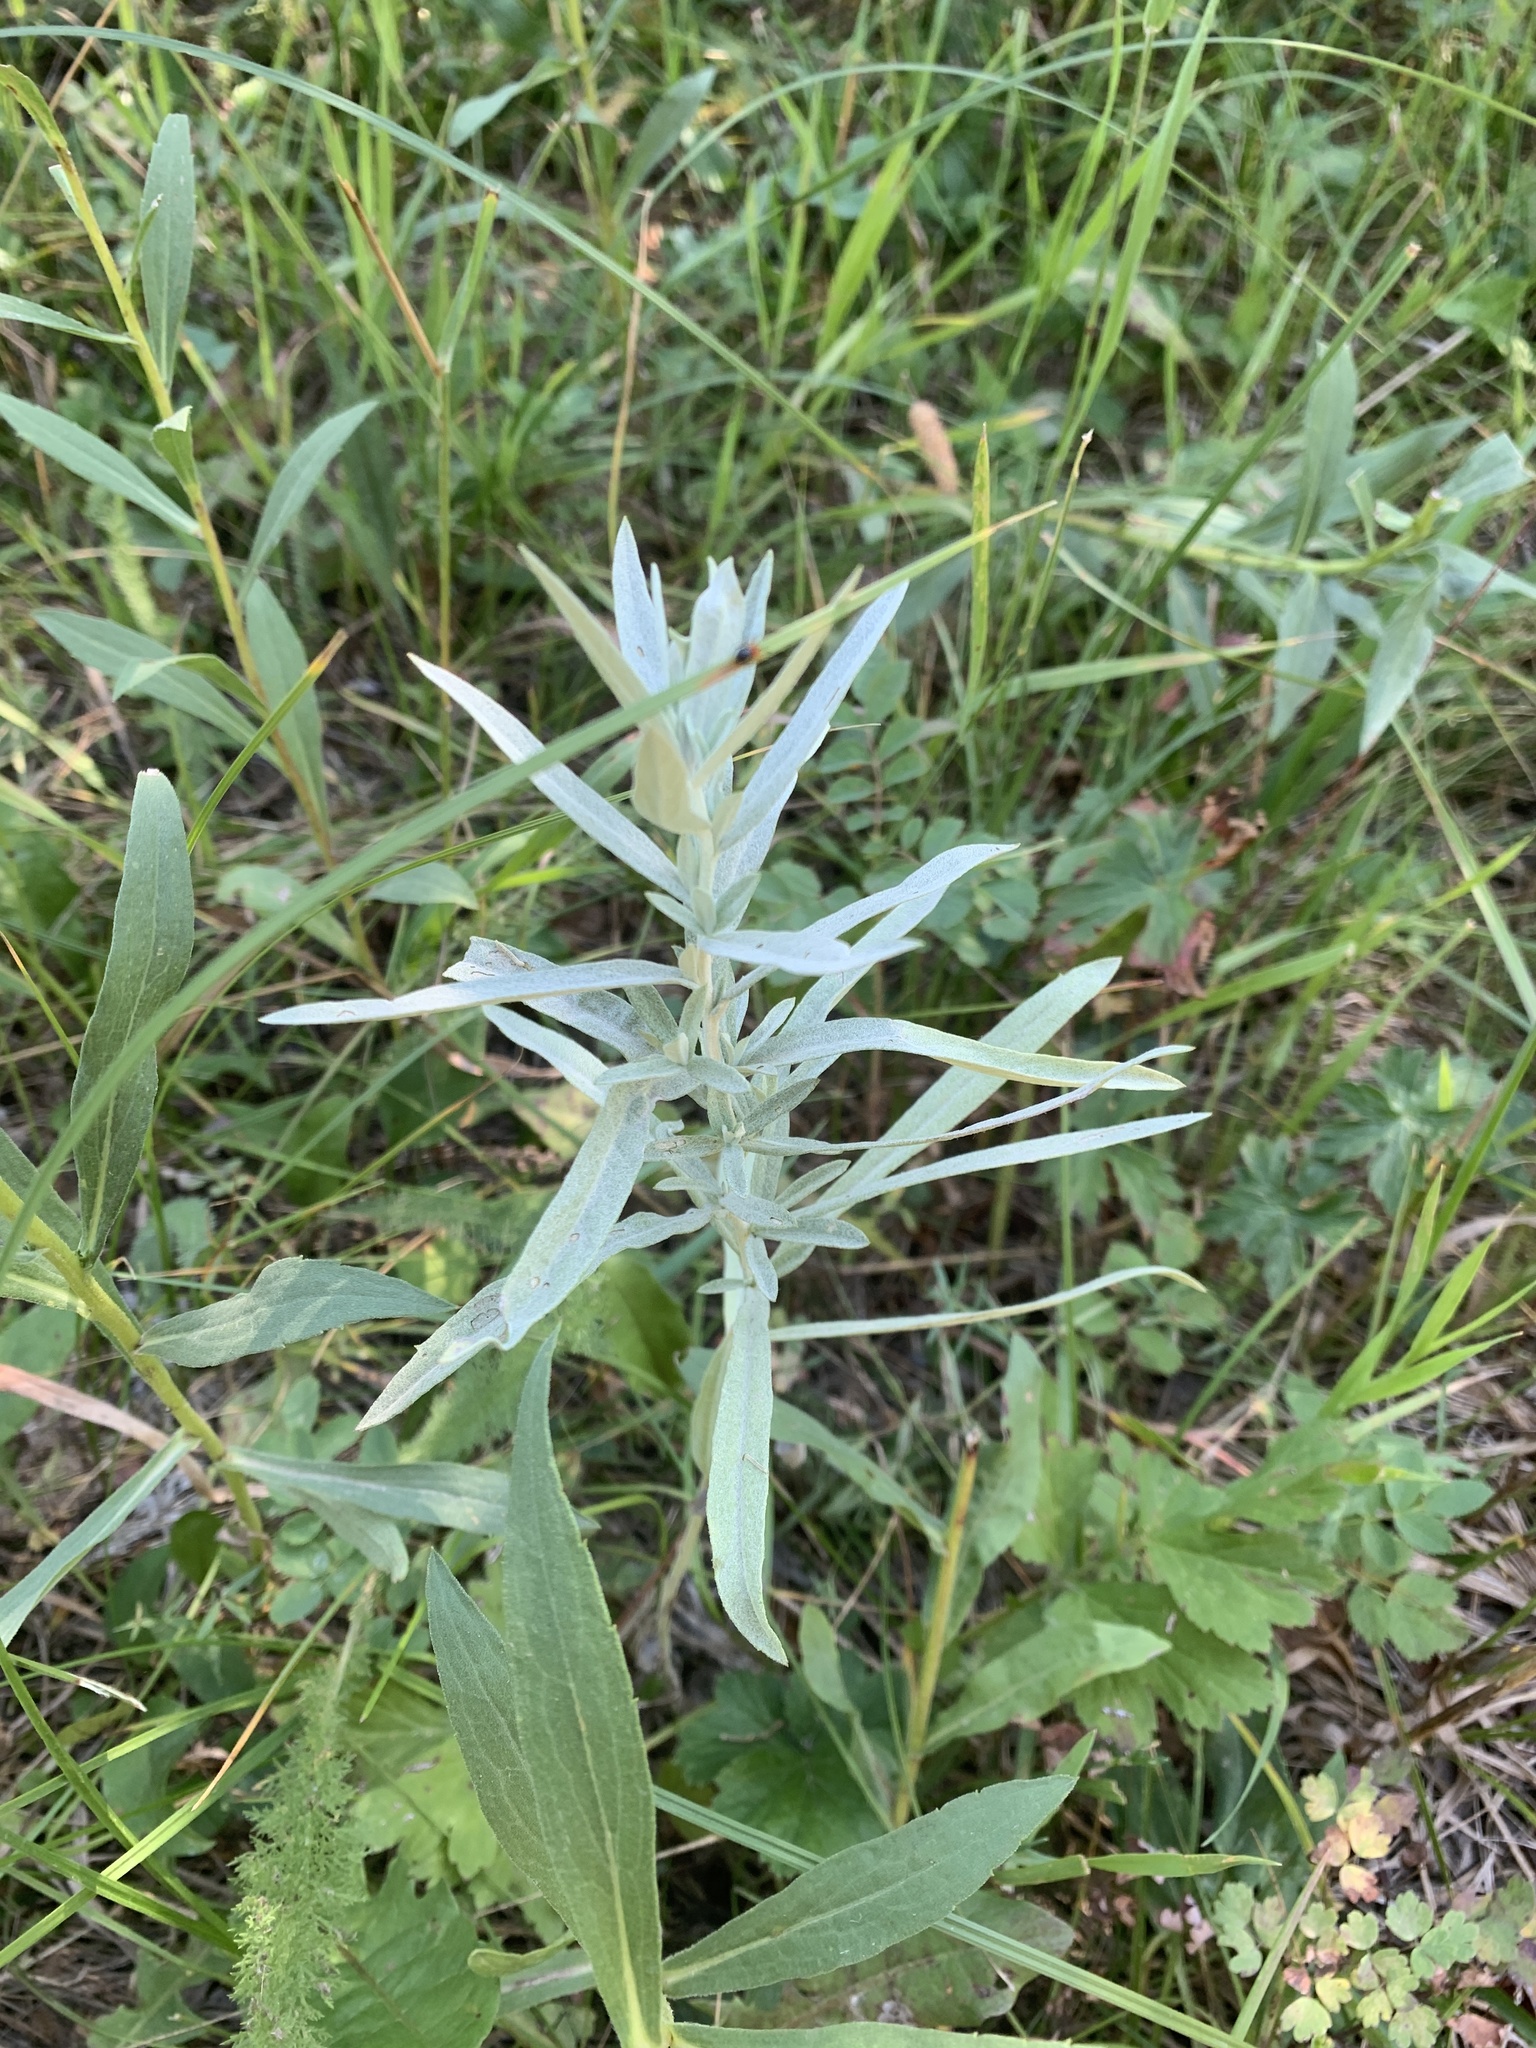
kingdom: Plantae
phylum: Tracheophyta
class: Magnoliopsida
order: Asterales
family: Asteraceae
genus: Artemisia
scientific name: Artemisia ludoviciana
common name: Western mugwort
